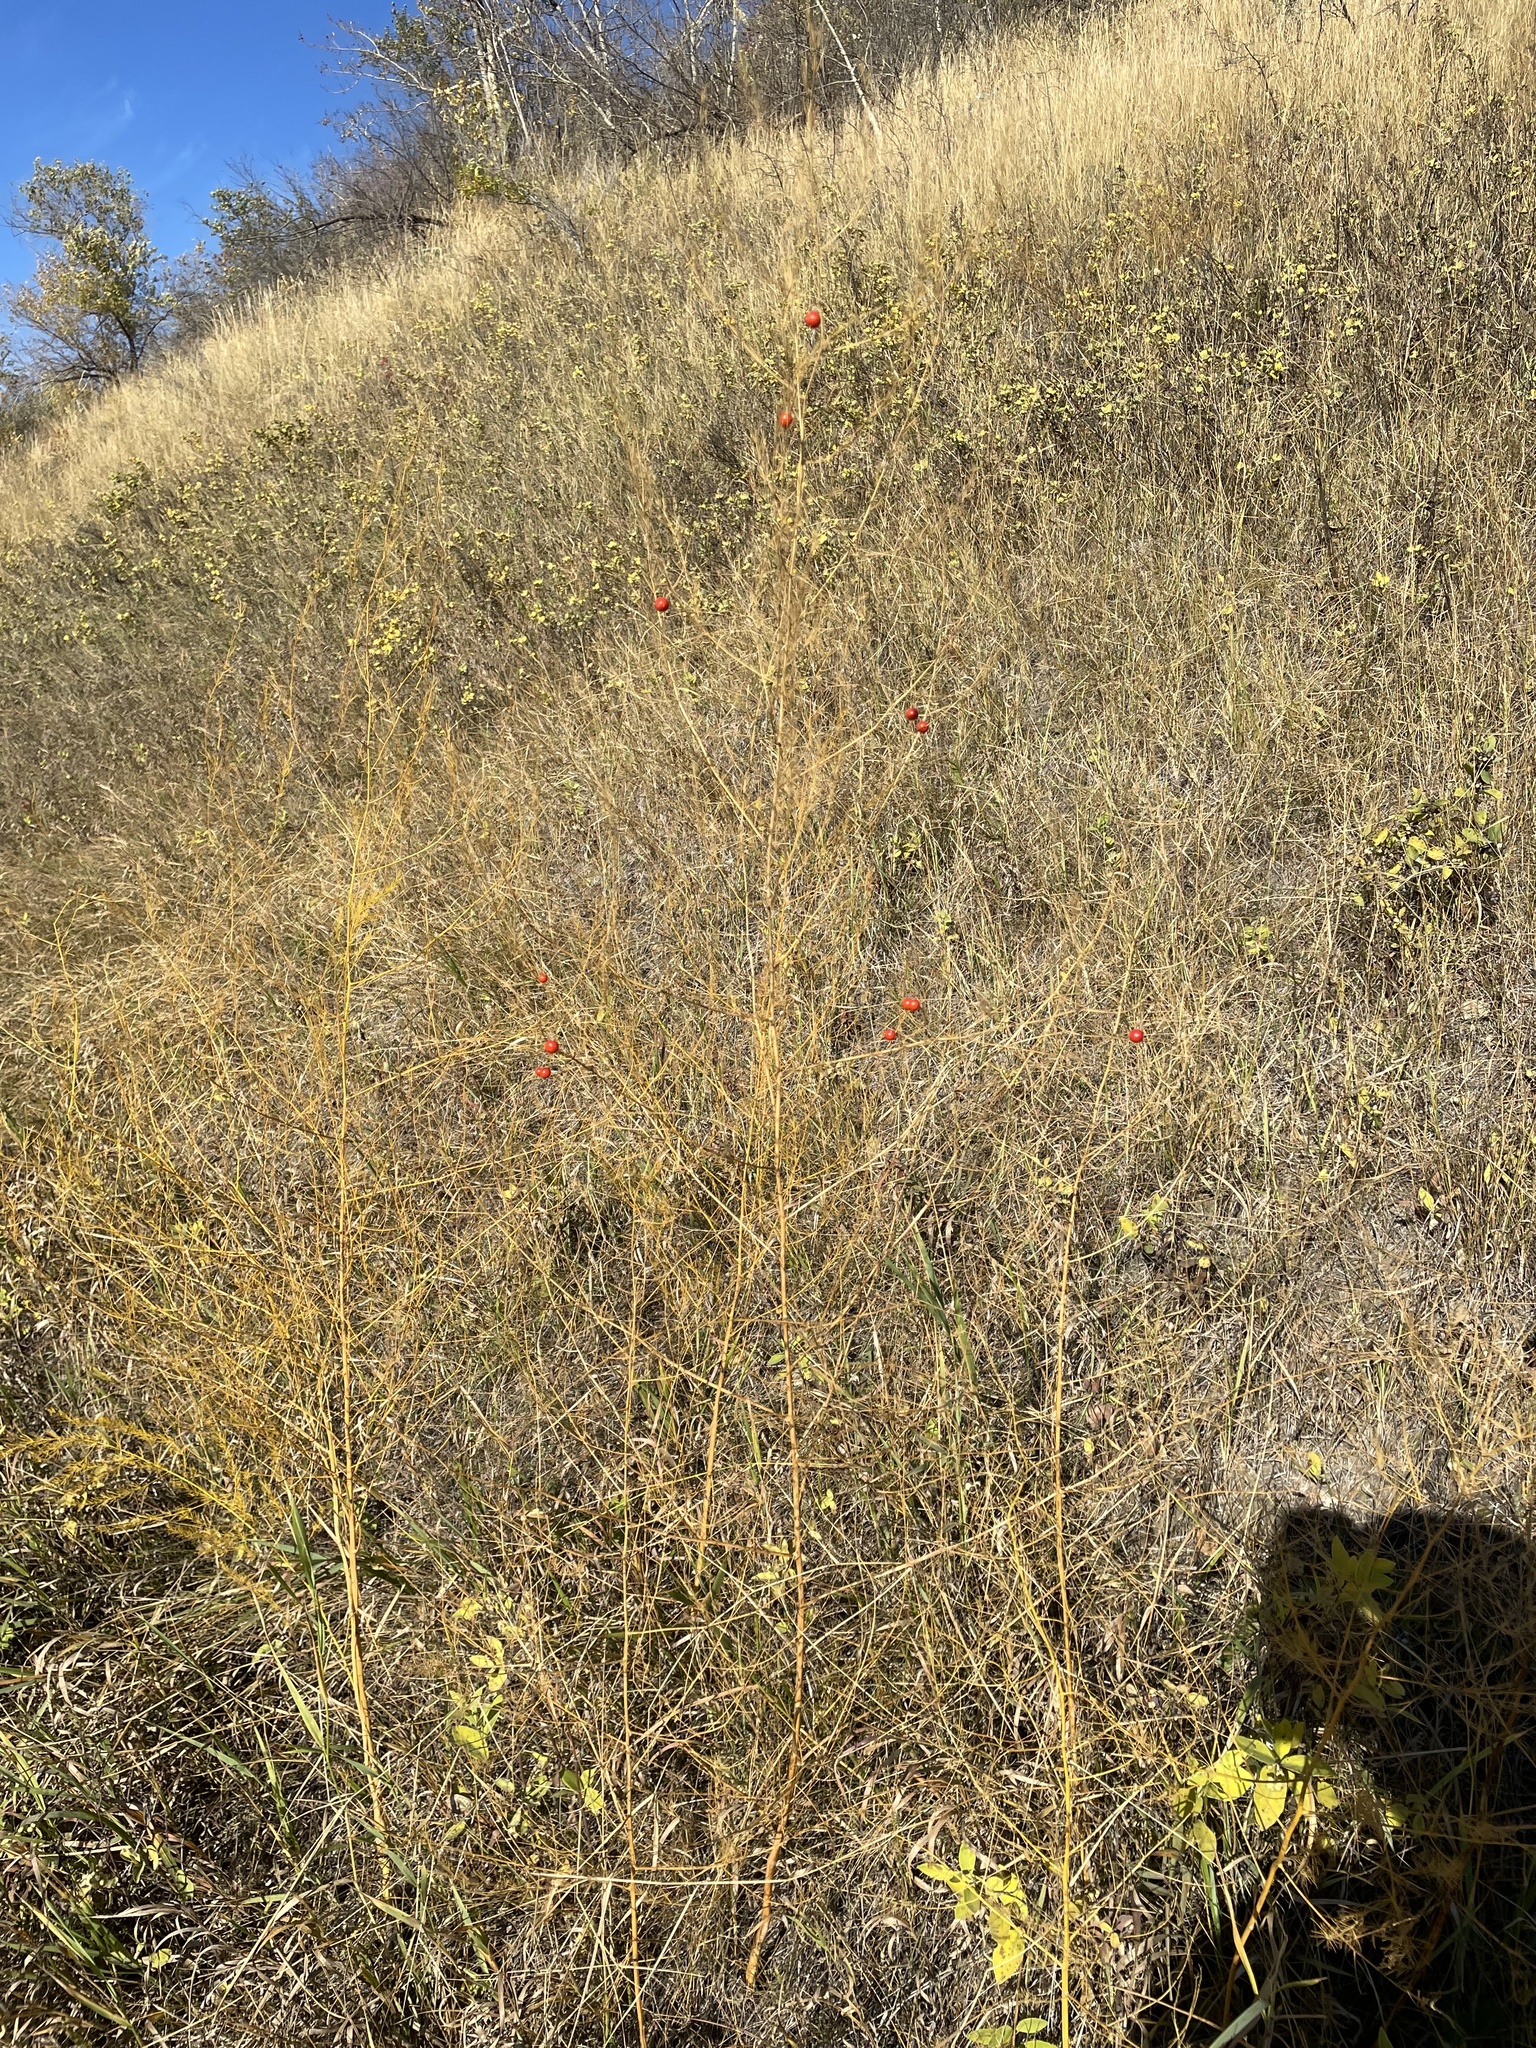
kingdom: Plantae
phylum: Tracheophyta
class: Liliopsida
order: Asparagales
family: Asparagaceae
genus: Asparagus
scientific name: Asparagus officinalis
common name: Garden asparagus
